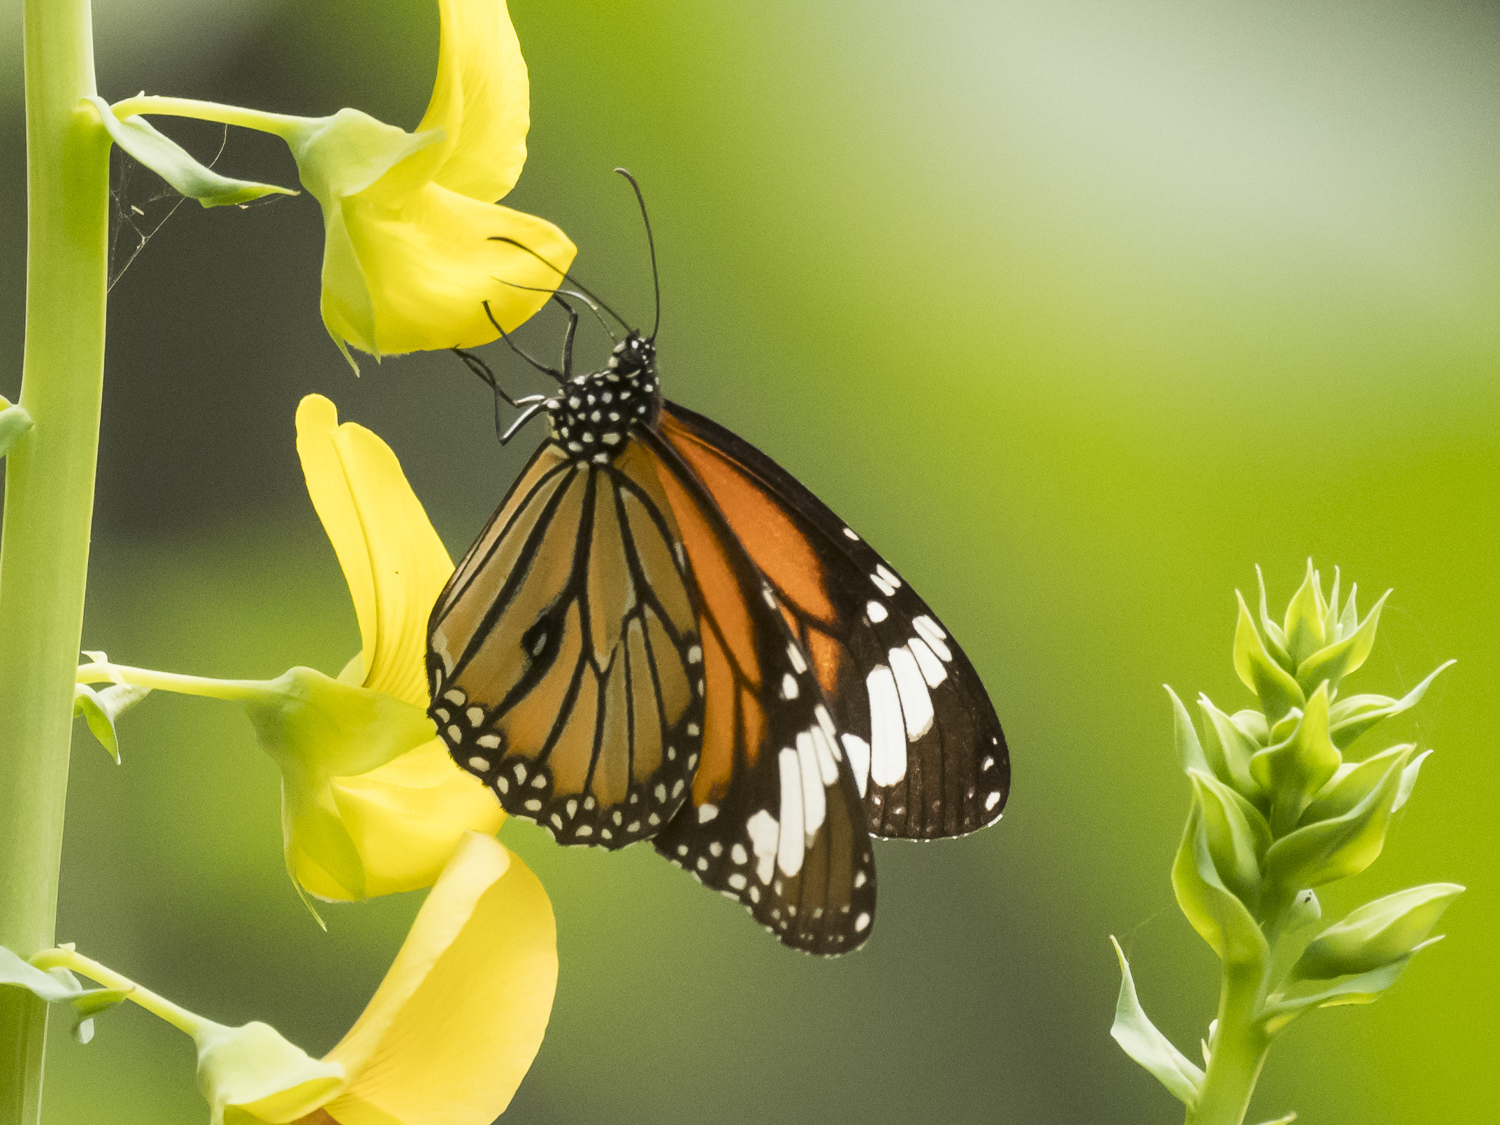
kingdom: Animalia
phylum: Arthropoda
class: Insecta
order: Lepidoptera
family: Nymphalidae
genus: Danaus
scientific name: Danaus genutia
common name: Common tiger butterfly
